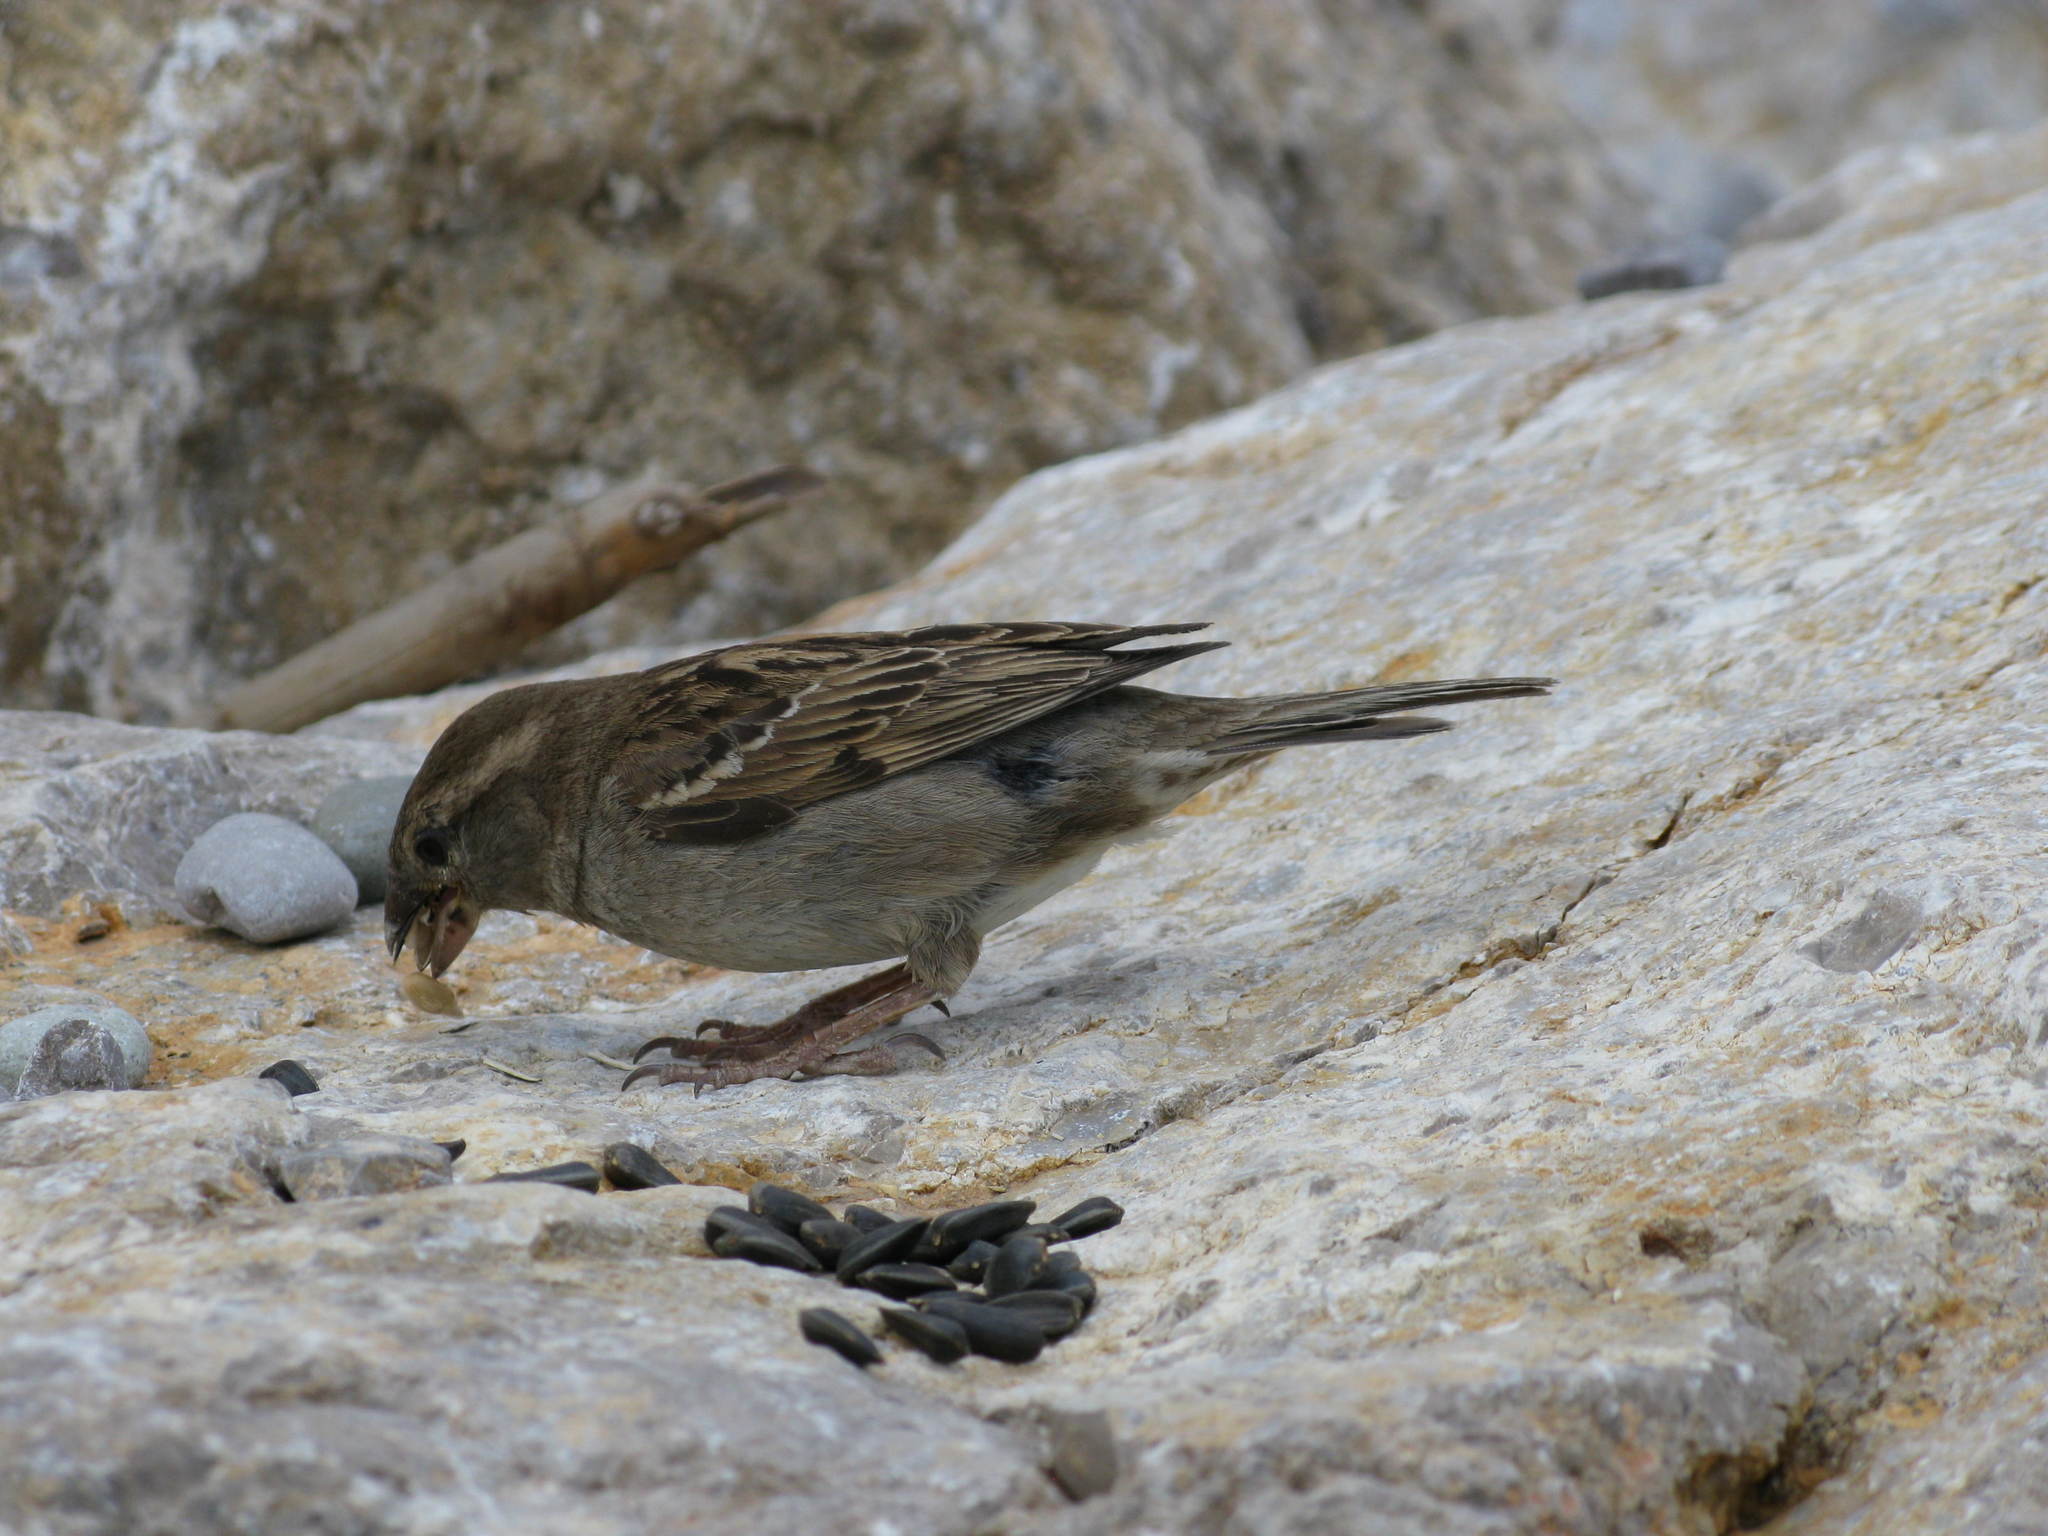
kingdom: Animalia
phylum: Chordata
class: Aves
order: Passeriformes
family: Passeridae
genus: Passer
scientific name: Passer domesticus
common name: House sparrow
